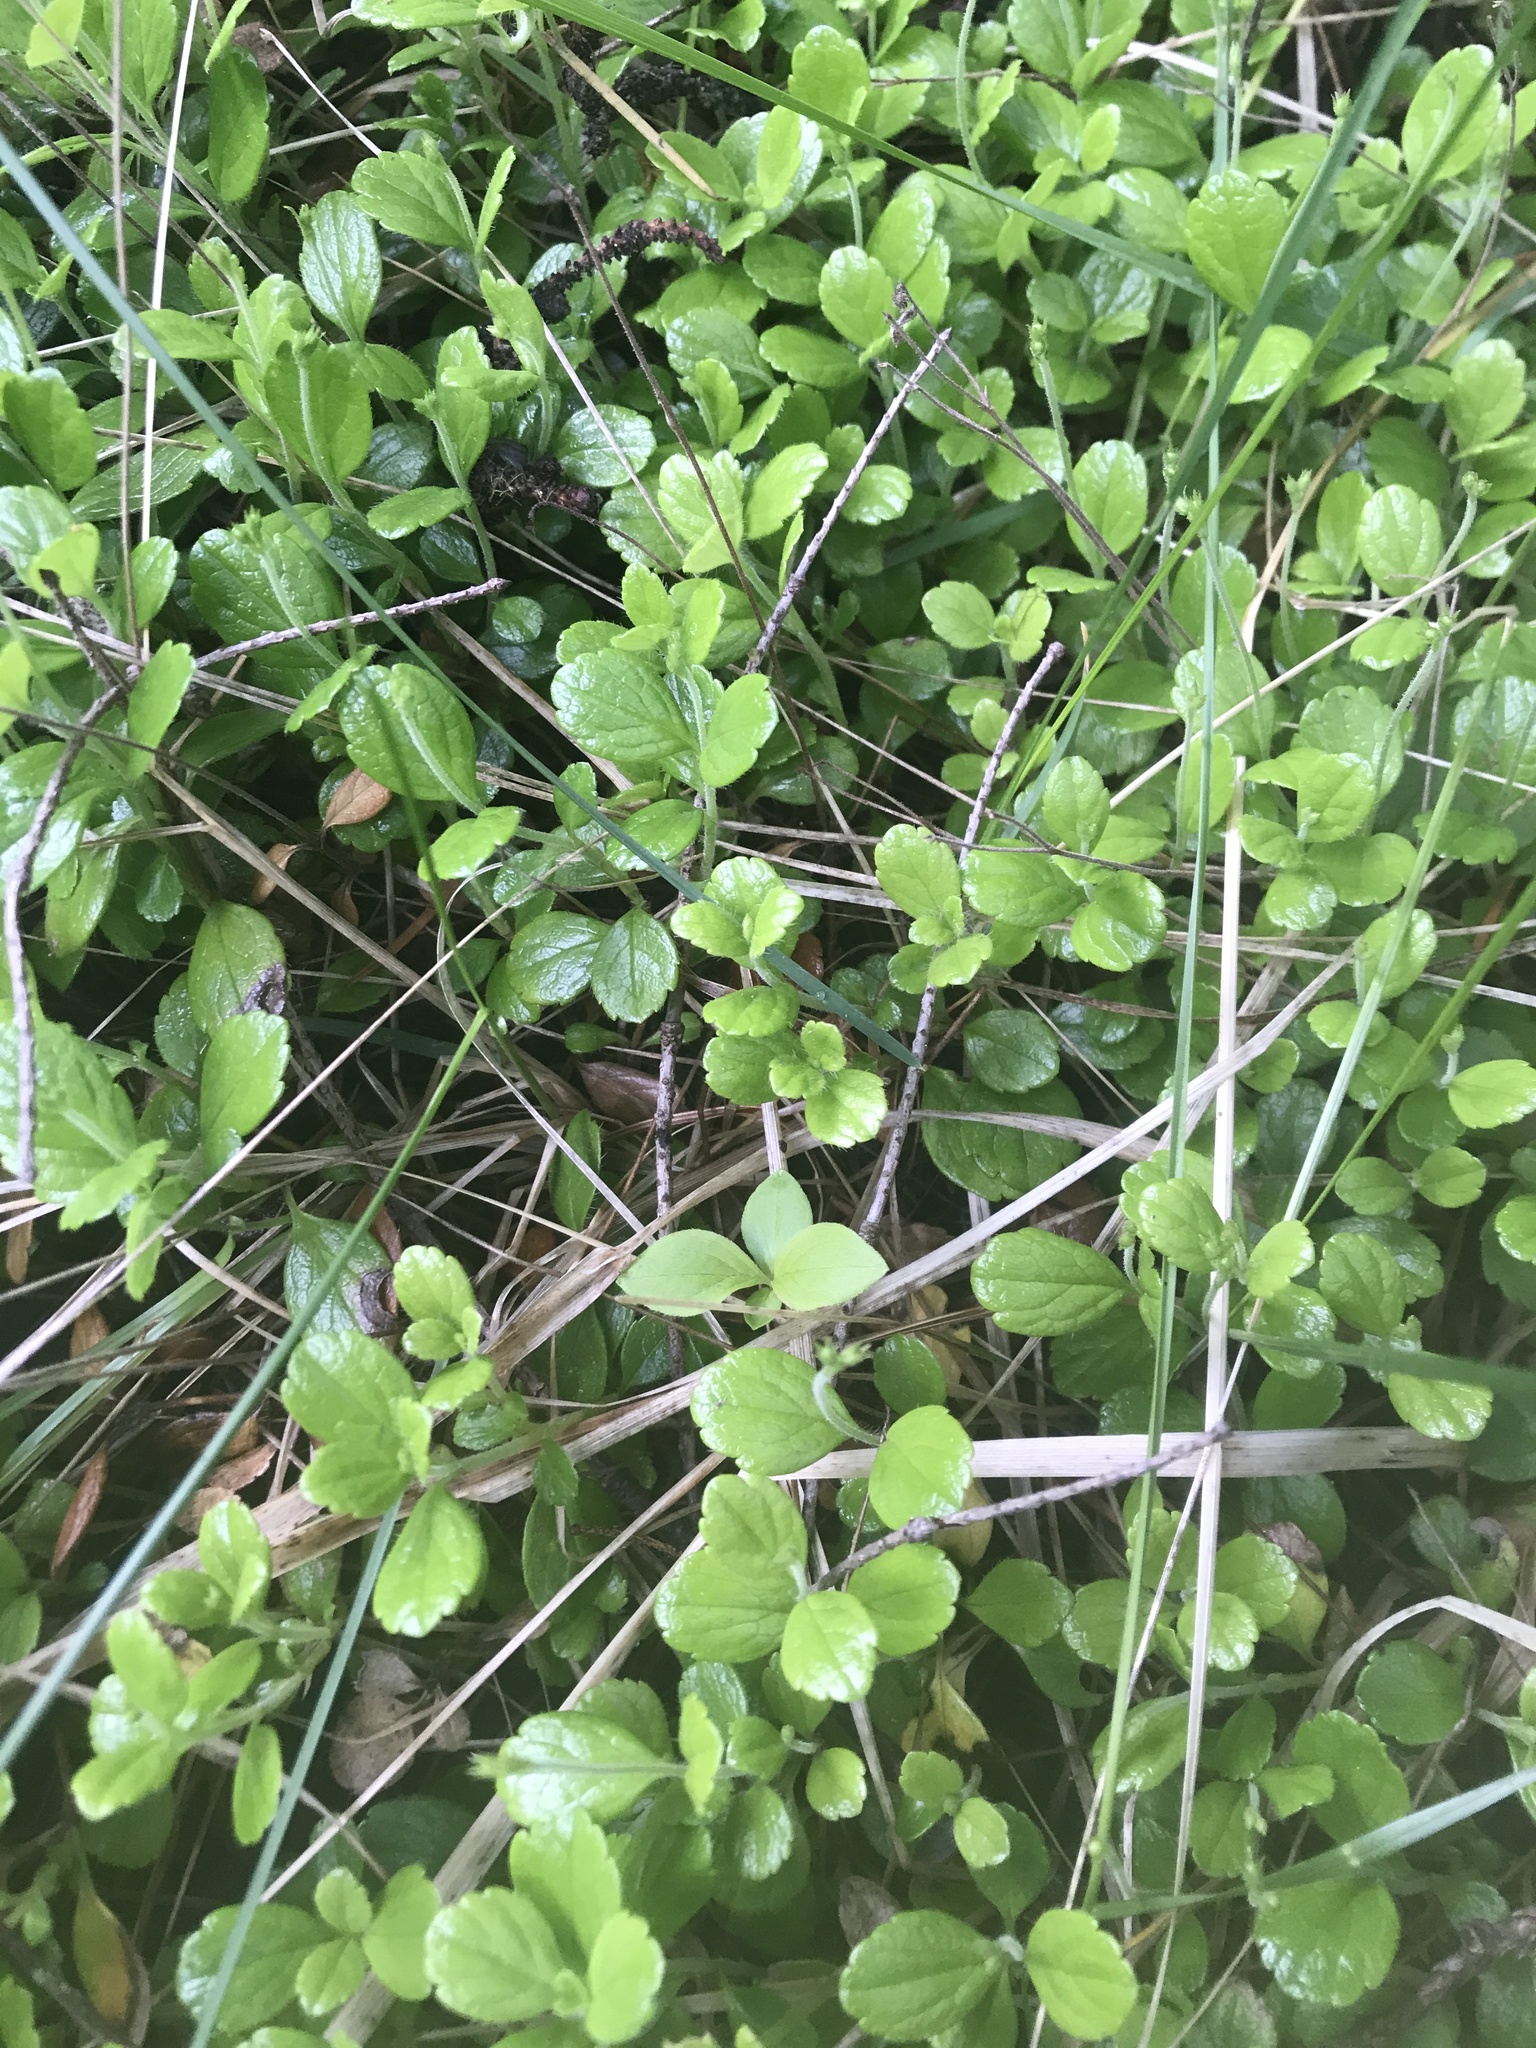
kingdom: Plantae
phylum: Tracheophyta
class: Magnoliopsida
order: Dipsacales
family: Caprifoliaceae
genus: Linnaea
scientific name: Linnaea borealis
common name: Twinflower
